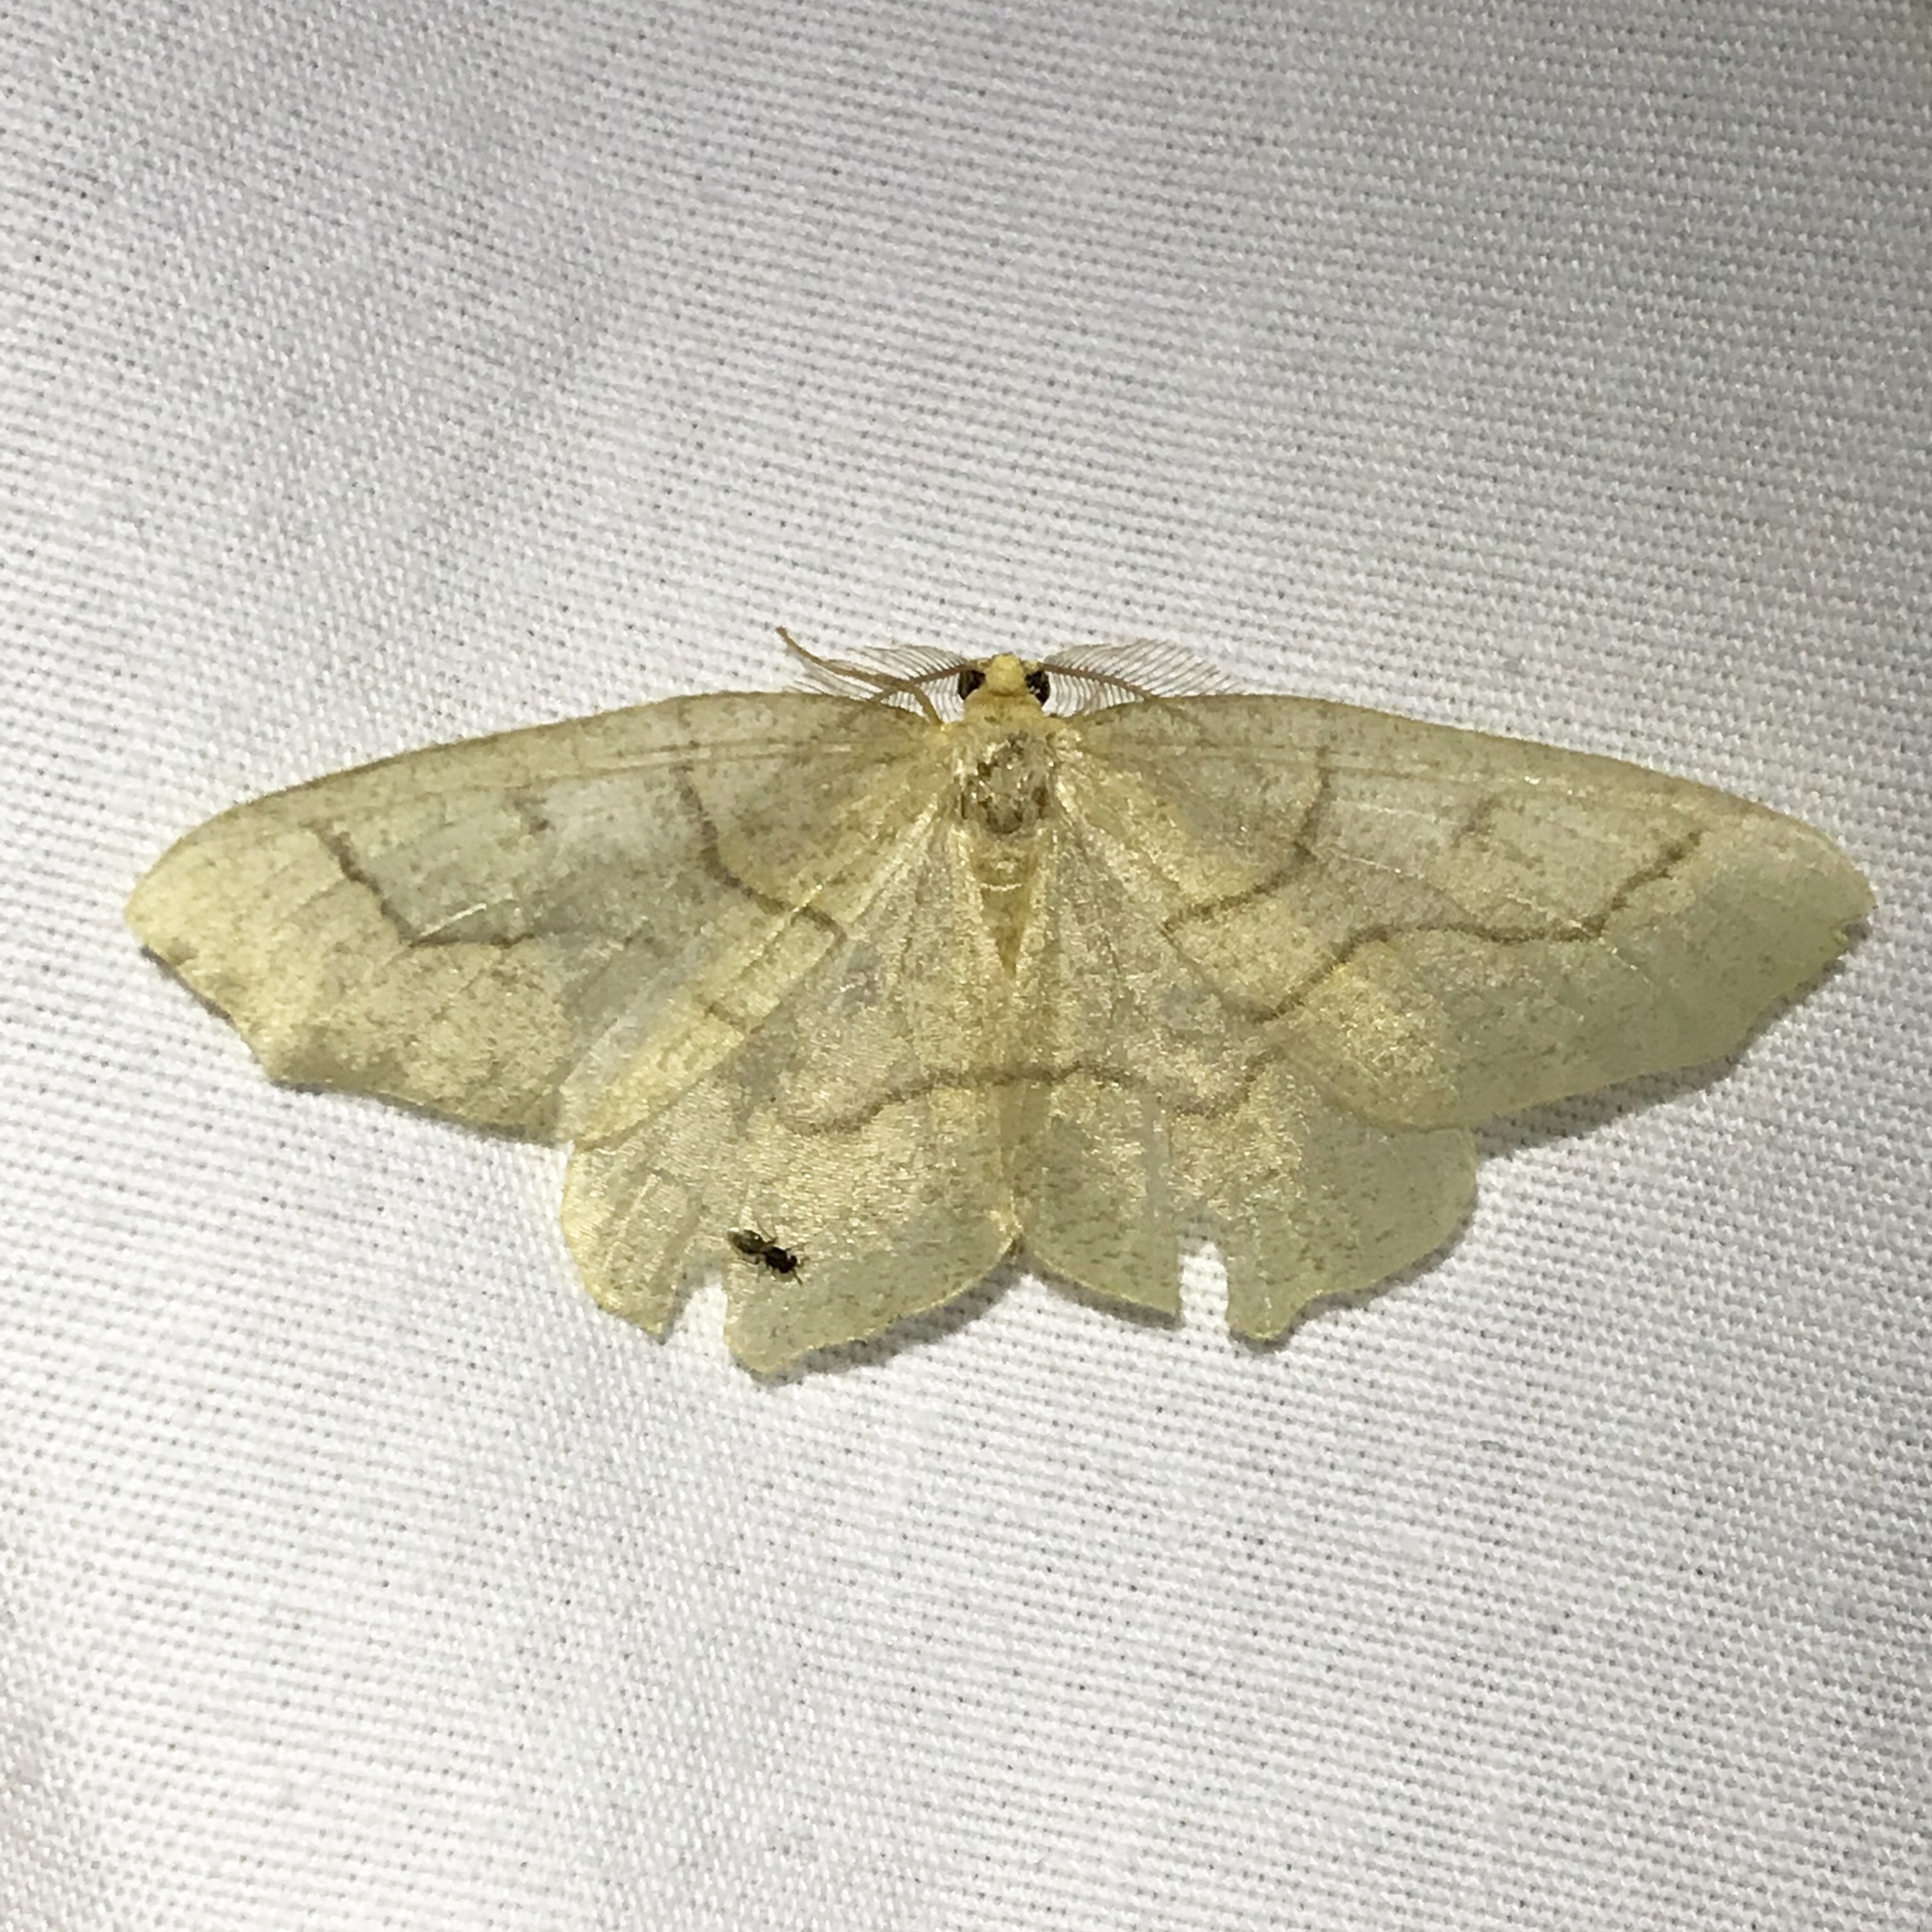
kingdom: Animalia
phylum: Arthropoda
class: Insecta
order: Lepidoptera
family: Geometridae
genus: Lambdina
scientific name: Lambdina fiscellaria
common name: Hemlock looper
